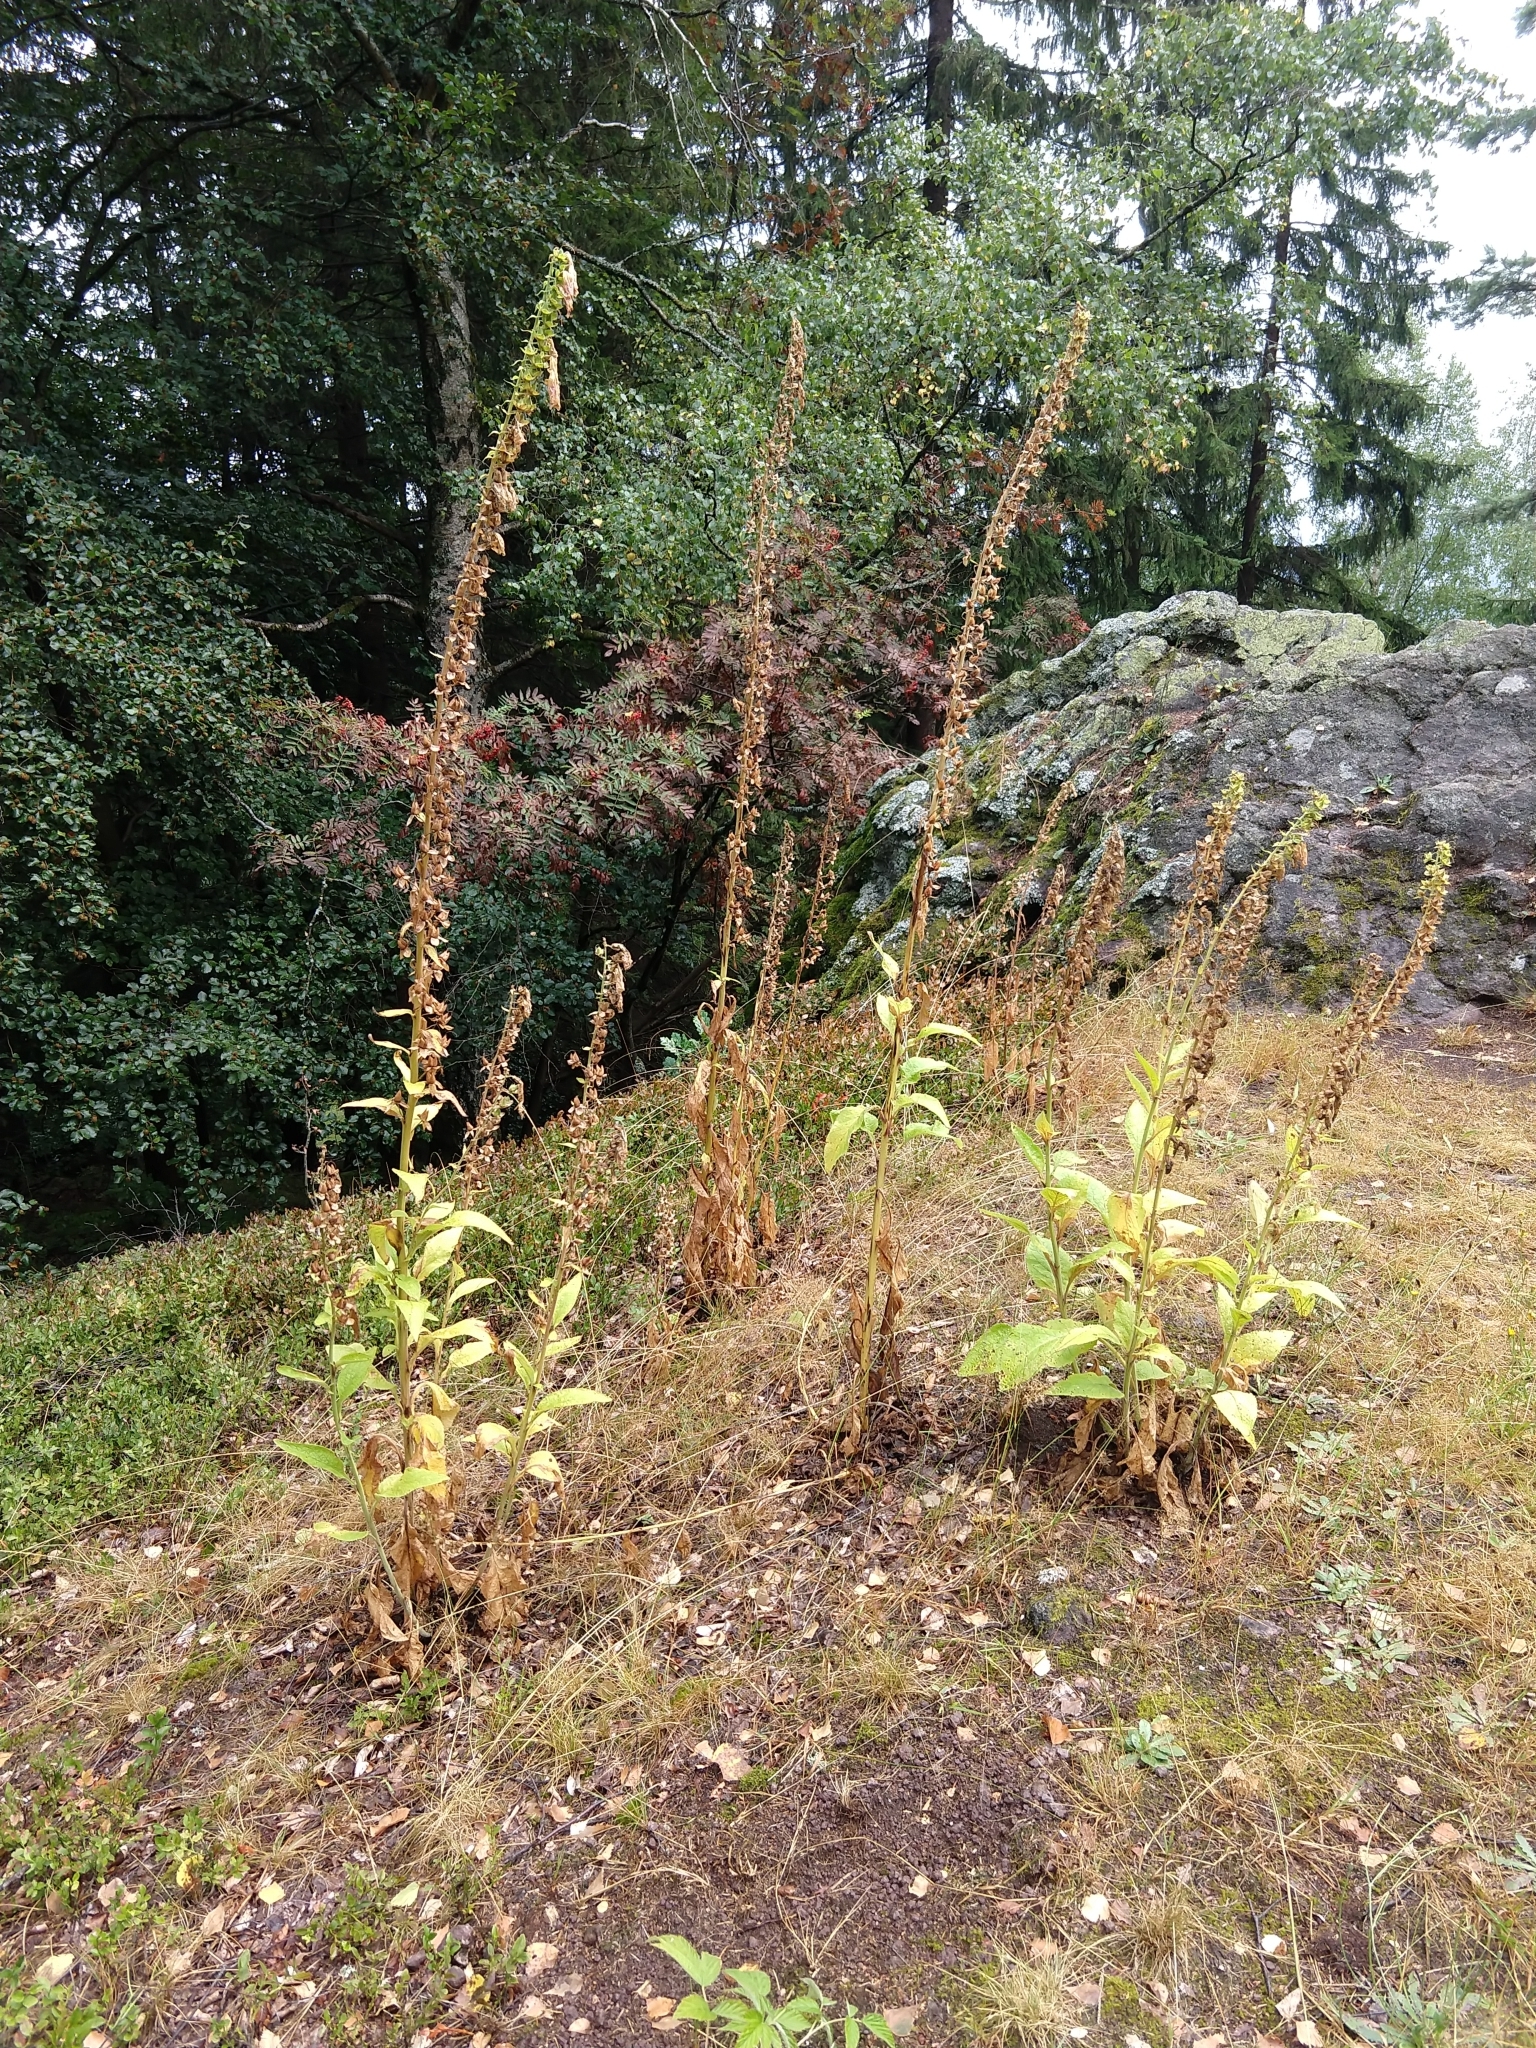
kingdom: Plantae
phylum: Tracheophyta
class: Magnoliopsida
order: Lamiales
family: Plantaginaceae
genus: Digitalis
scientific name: Digitalis purpurea
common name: Foxglove
